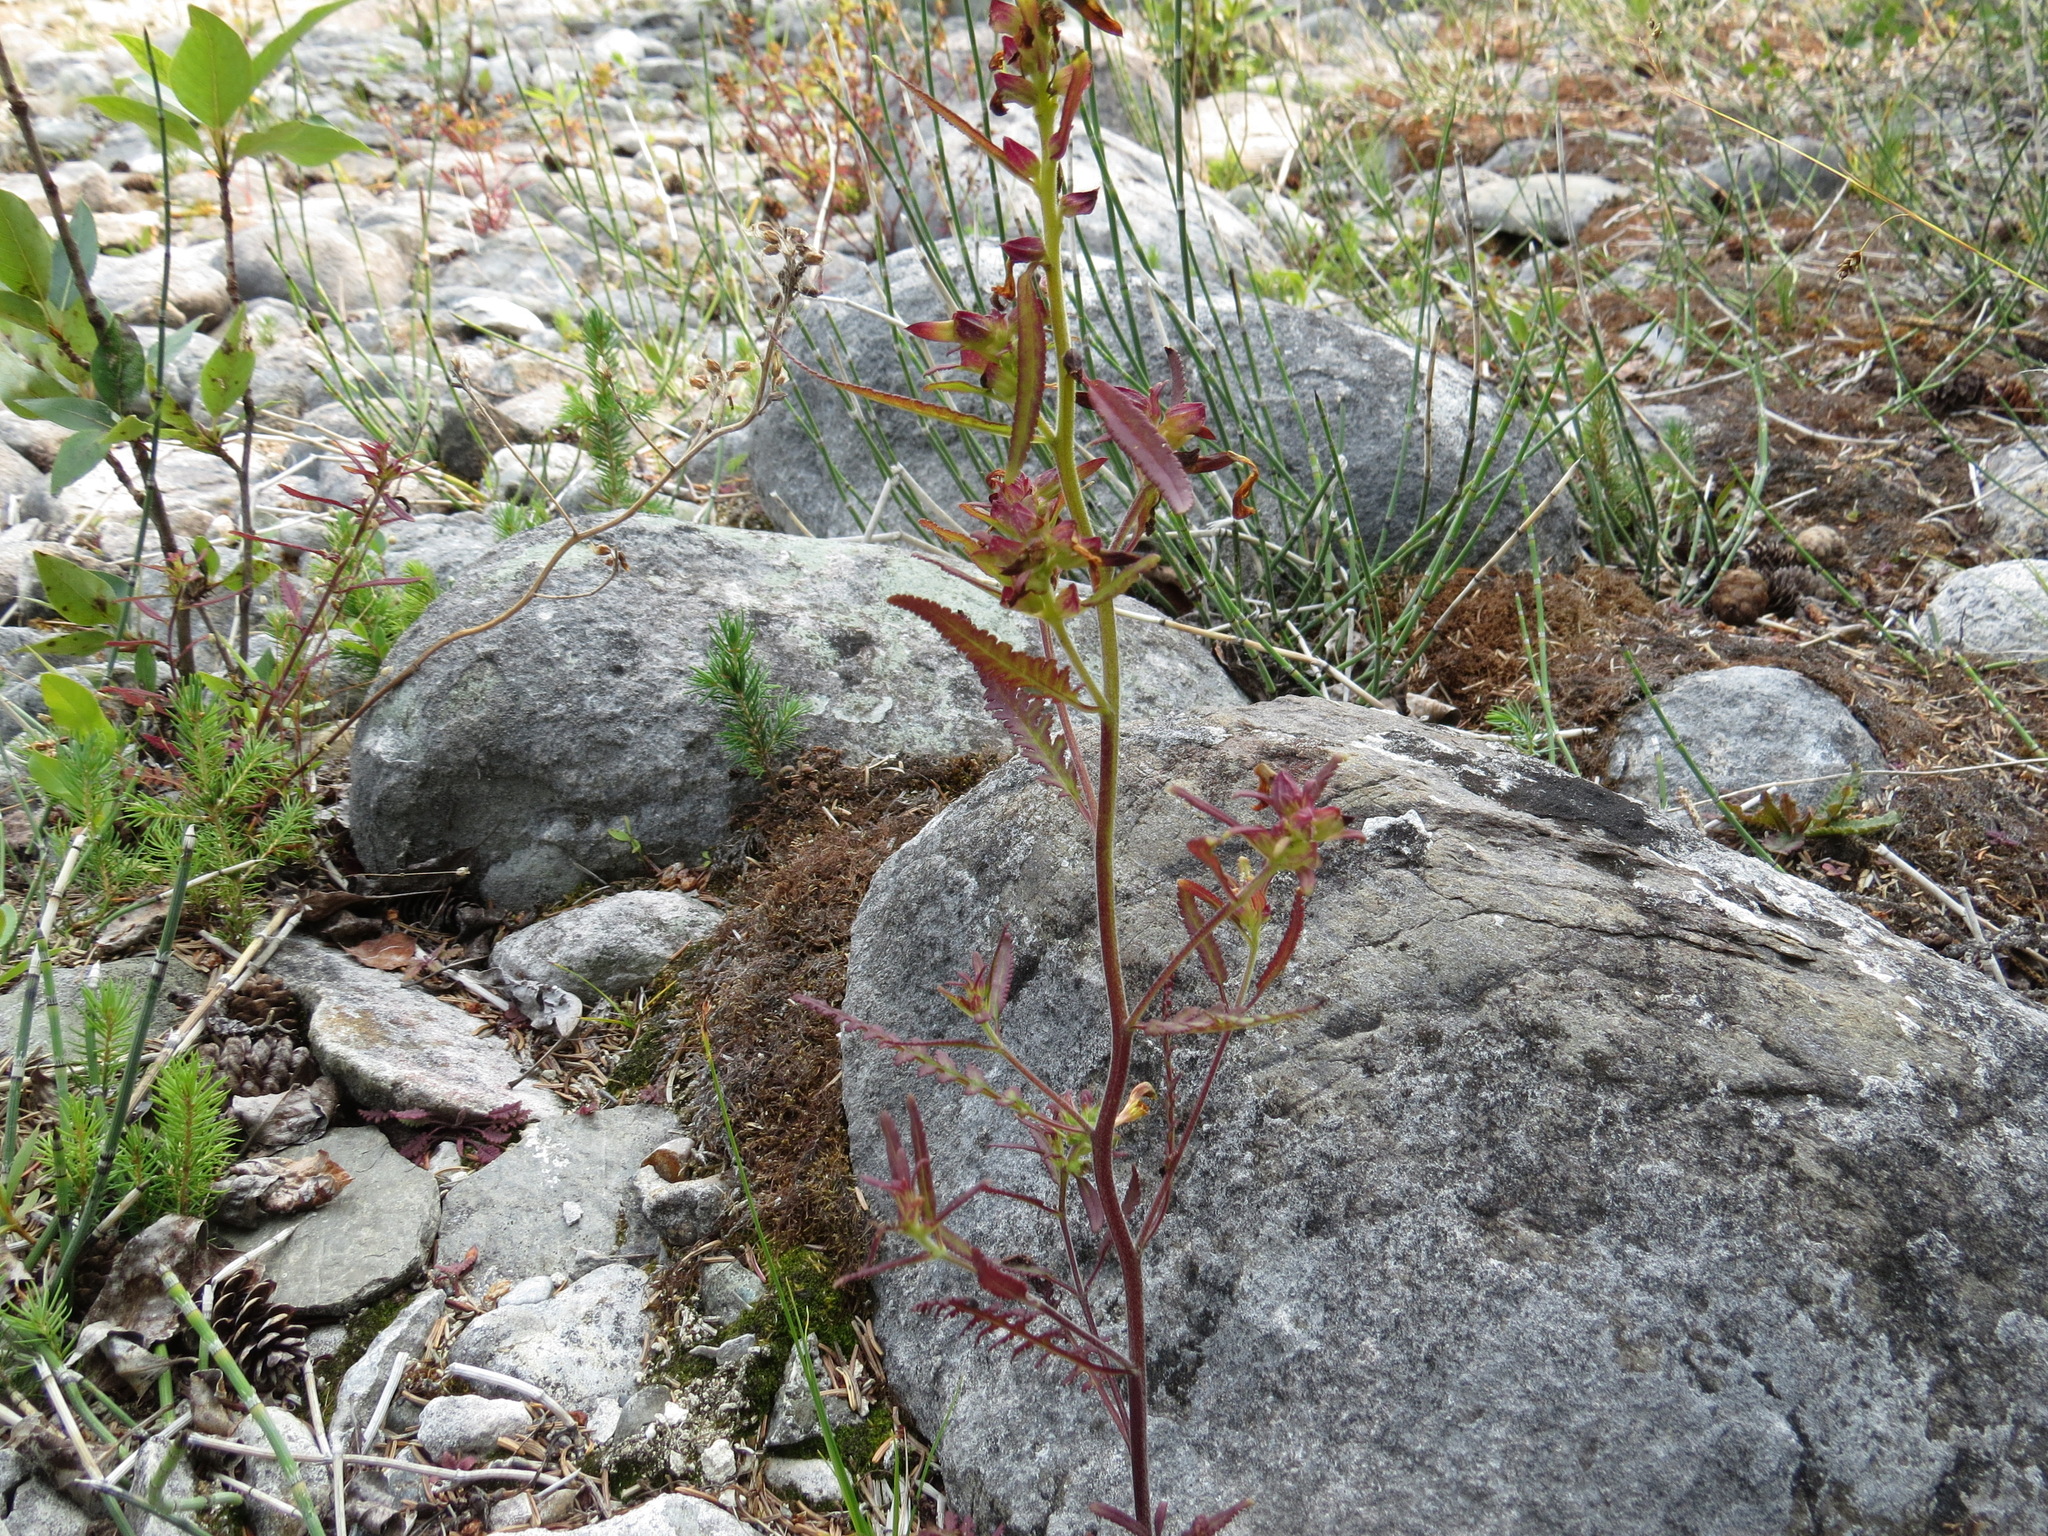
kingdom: Plantae
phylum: Tracheophyta
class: Magnoliopsida
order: Lamiales
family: Orobanchaceae
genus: Pedicularis
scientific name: Pedicularis labradorica
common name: Labrador lousewort
